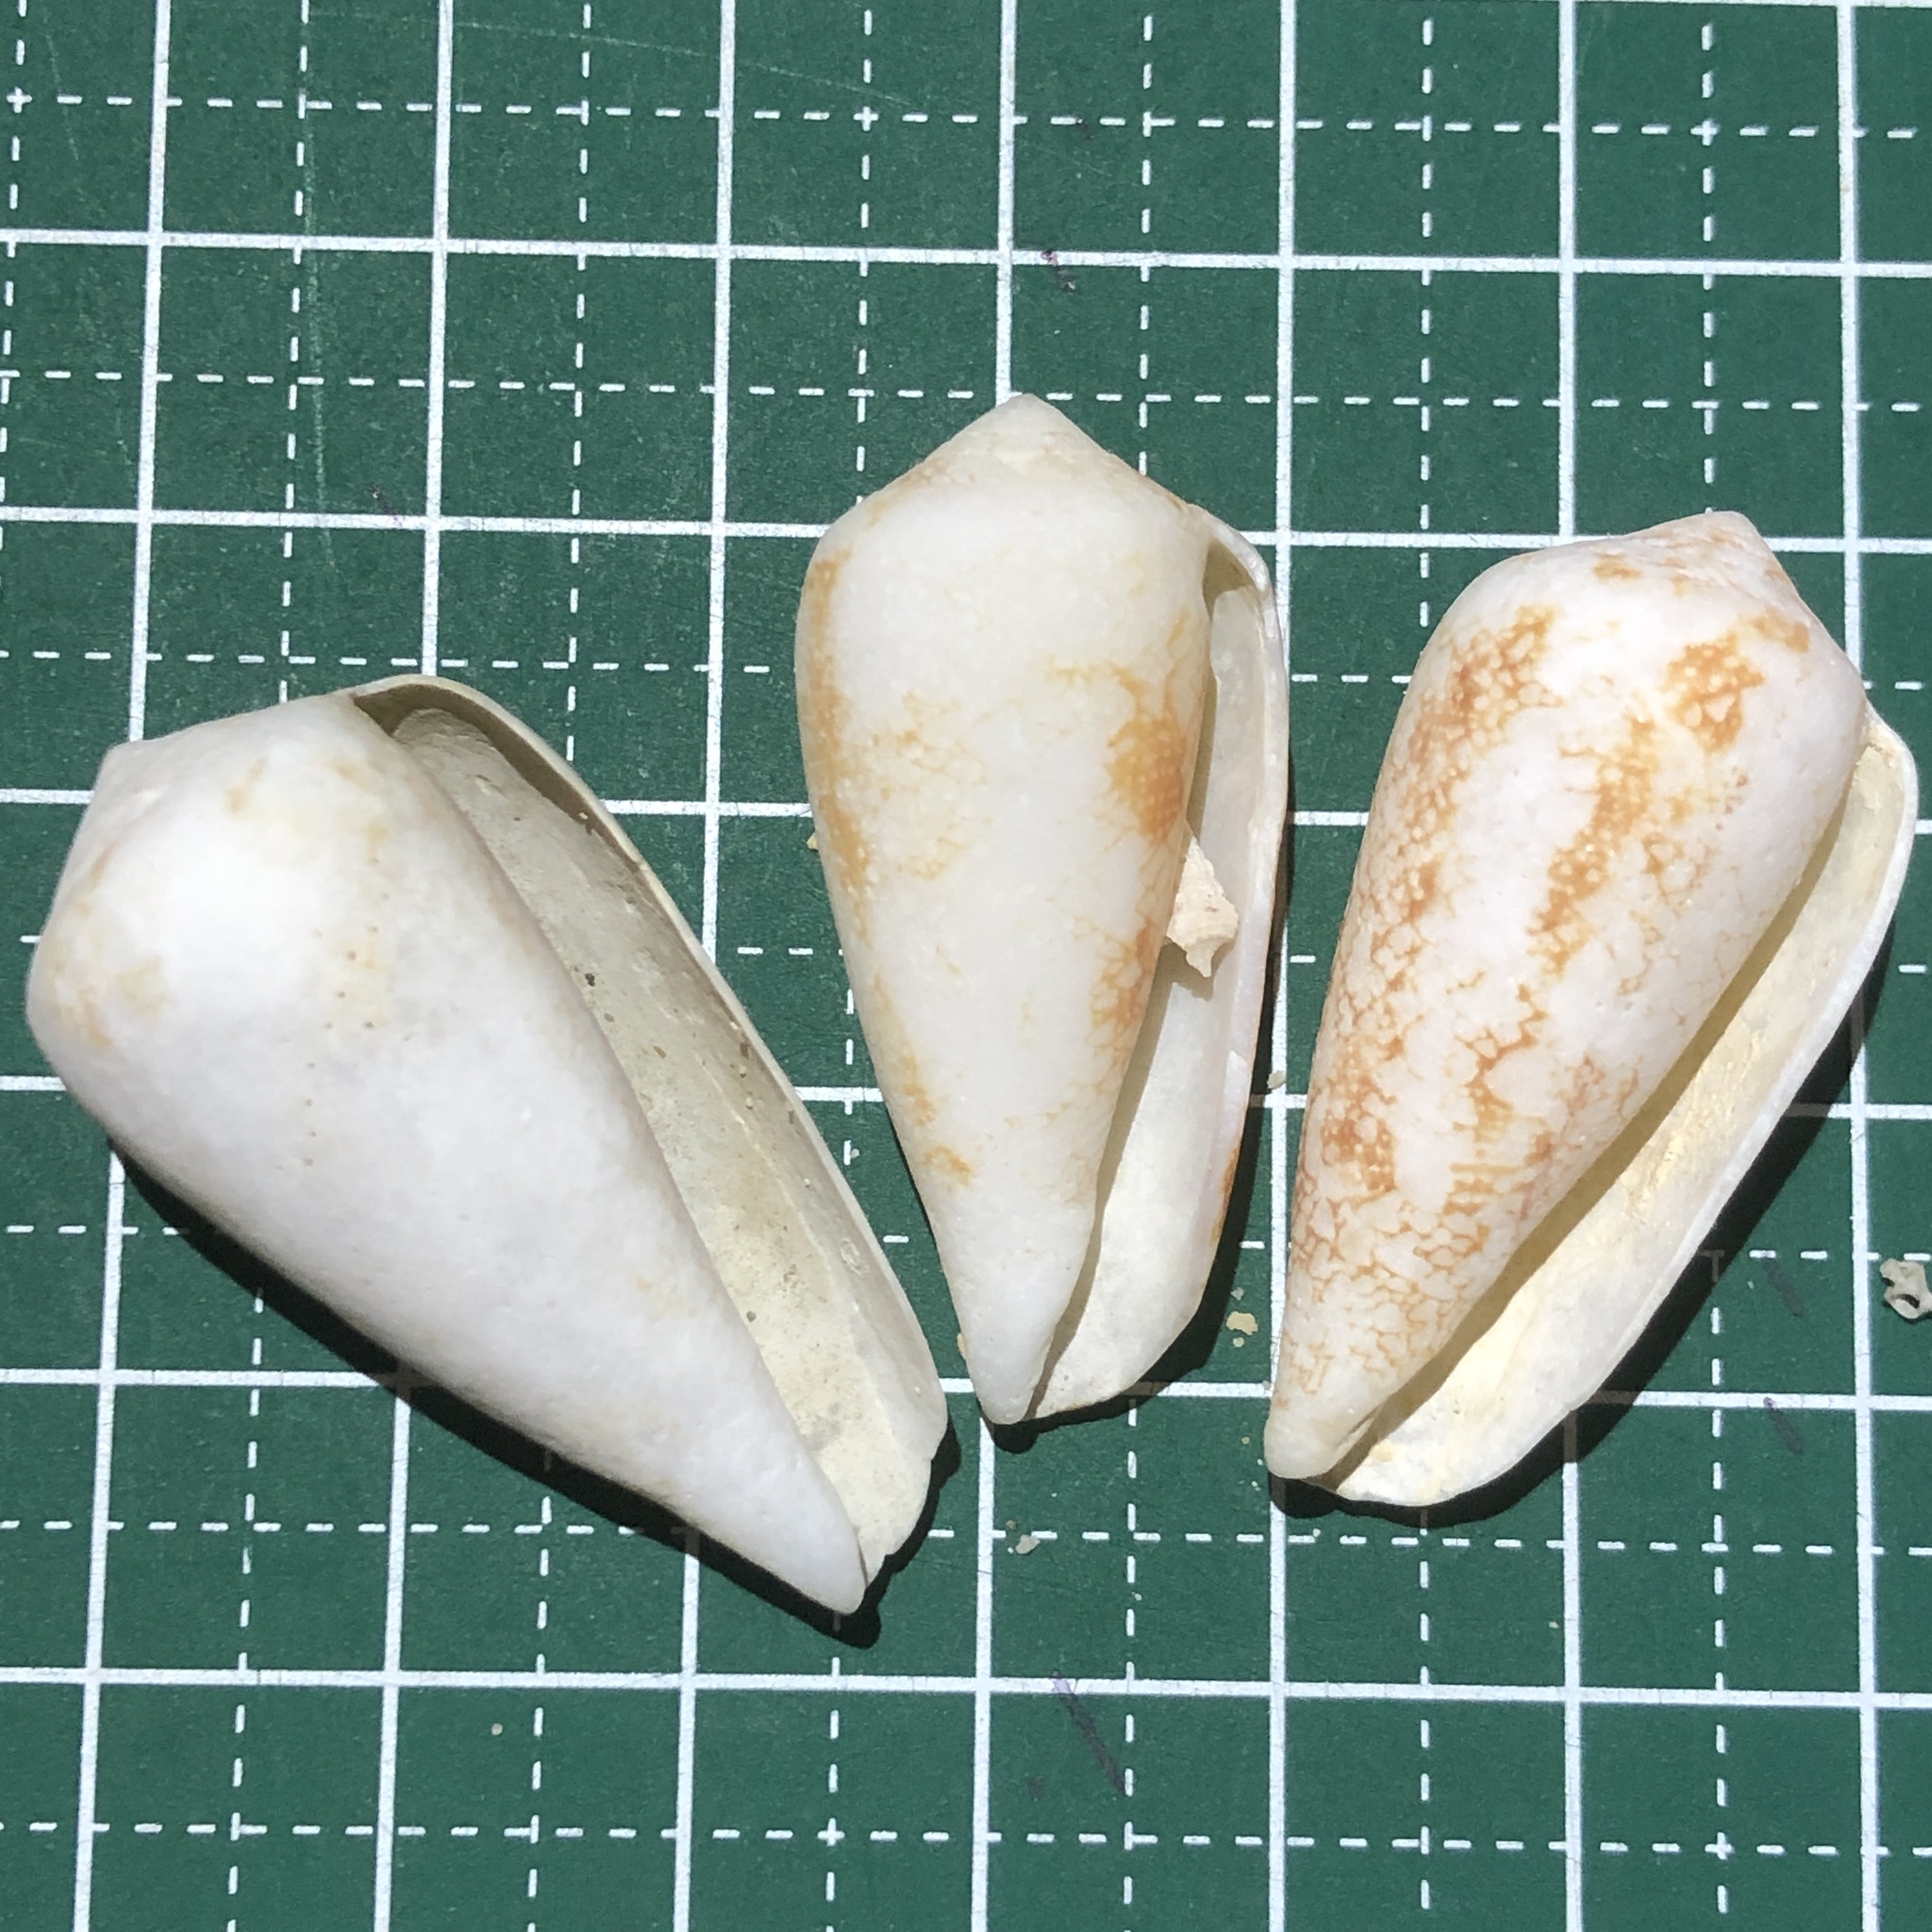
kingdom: Animalia
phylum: Mollusca
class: Gastropoda
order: Neogastropoda
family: Conidae
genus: Conus
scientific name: Conus omaria
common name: Omaria cone
